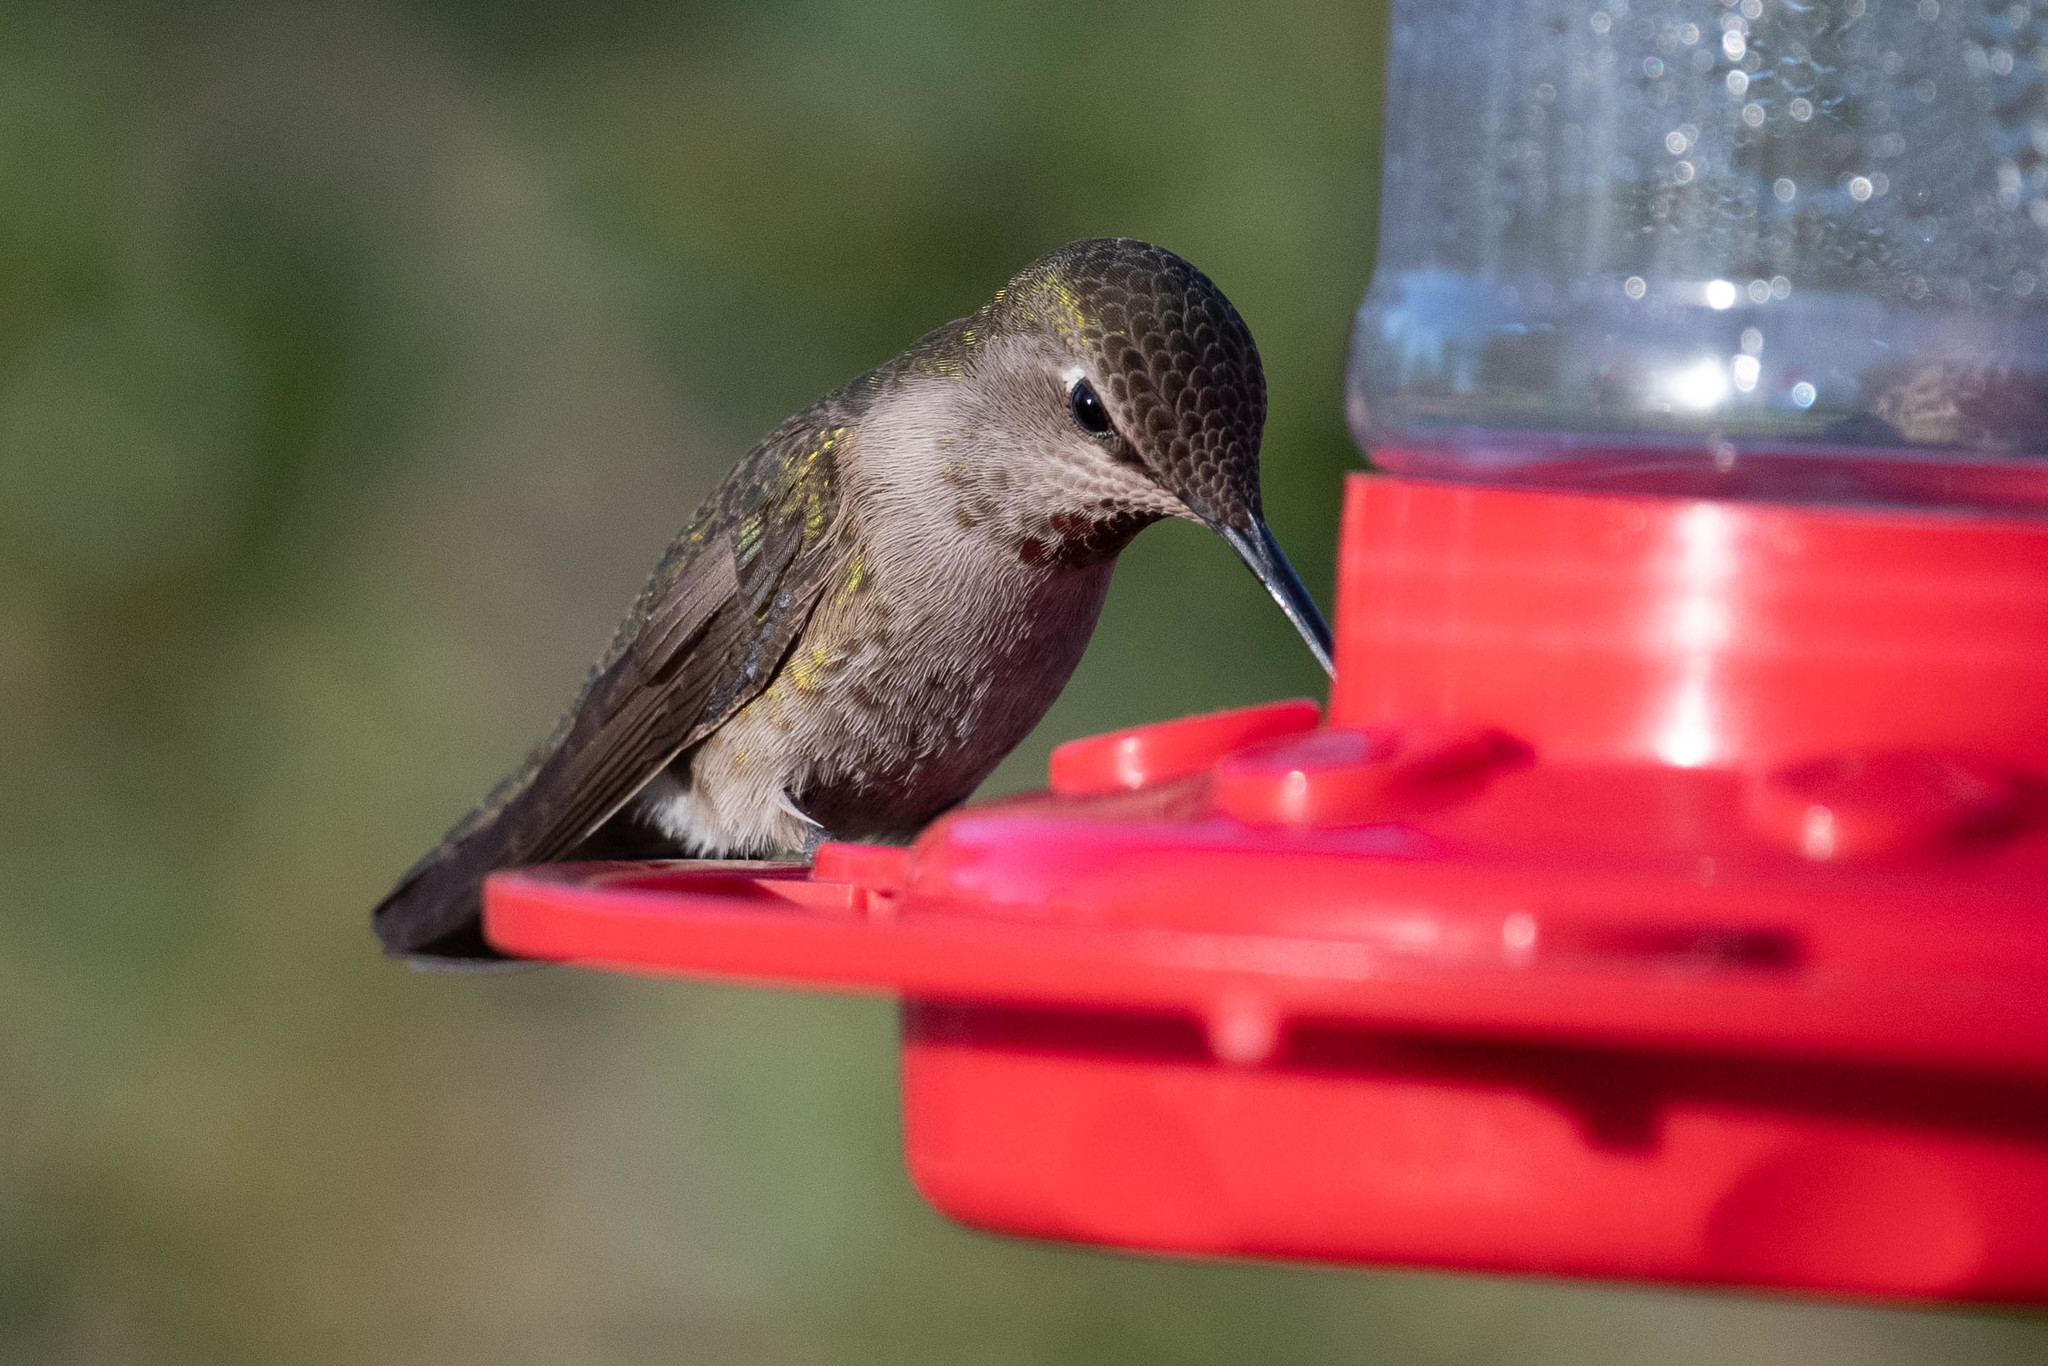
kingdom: Animalia
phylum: Chordata
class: Aves
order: Apodiformes
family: Trochilidae
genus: Calypte
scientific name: Calypte anna
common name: Anna's hummingbird
